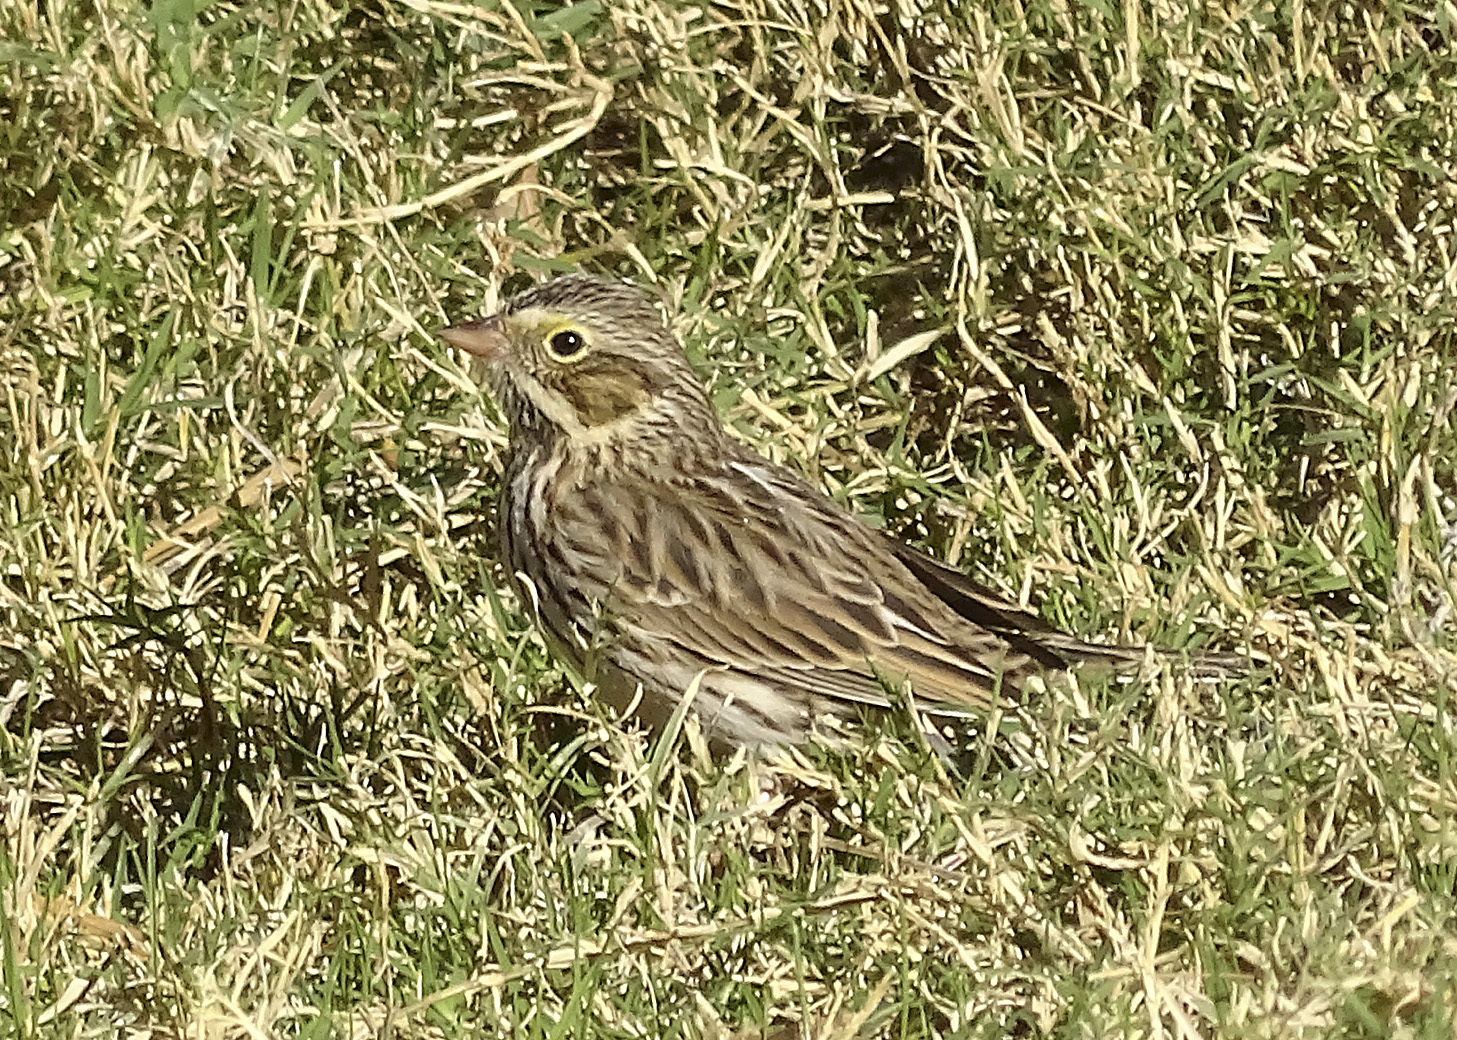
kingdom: Animalia
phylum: Chordata
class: Aves
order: Passeriformes
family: Passerellidae
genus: Pooecetes
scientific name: Pooecetes gramineus
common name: Vesper sparrow
